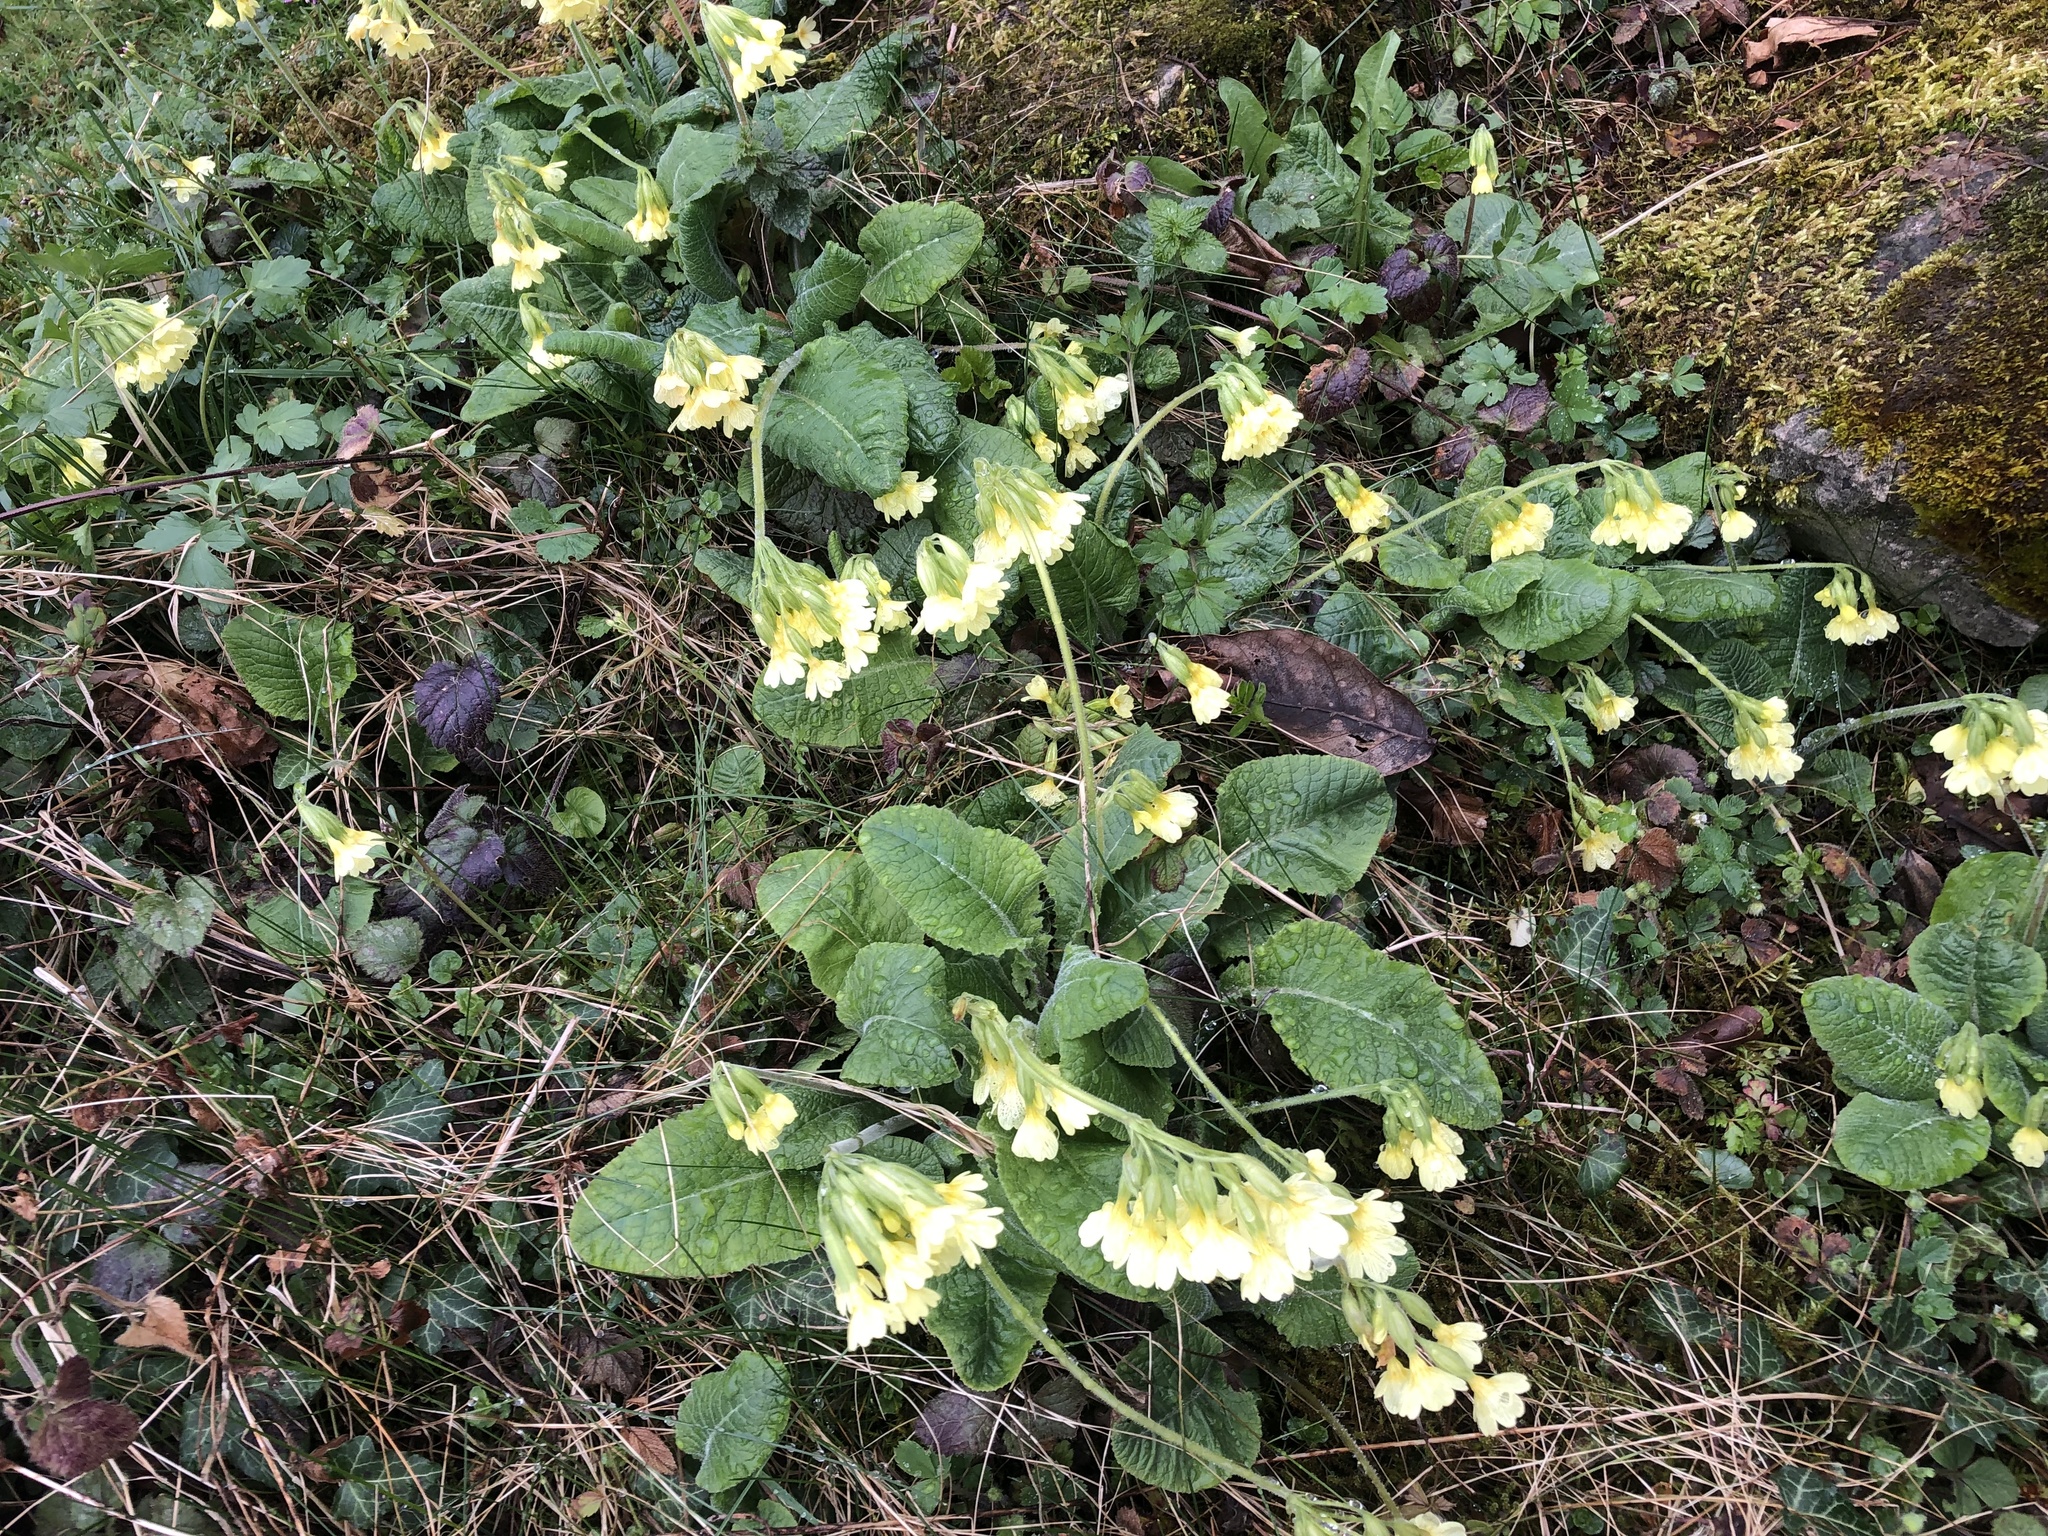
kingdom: Plantae
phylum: Tracheophyta
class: Magnoliopsida
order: Ericales
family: Primulaceae
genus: Primula
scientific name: Primula elatior
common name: Oxlip
